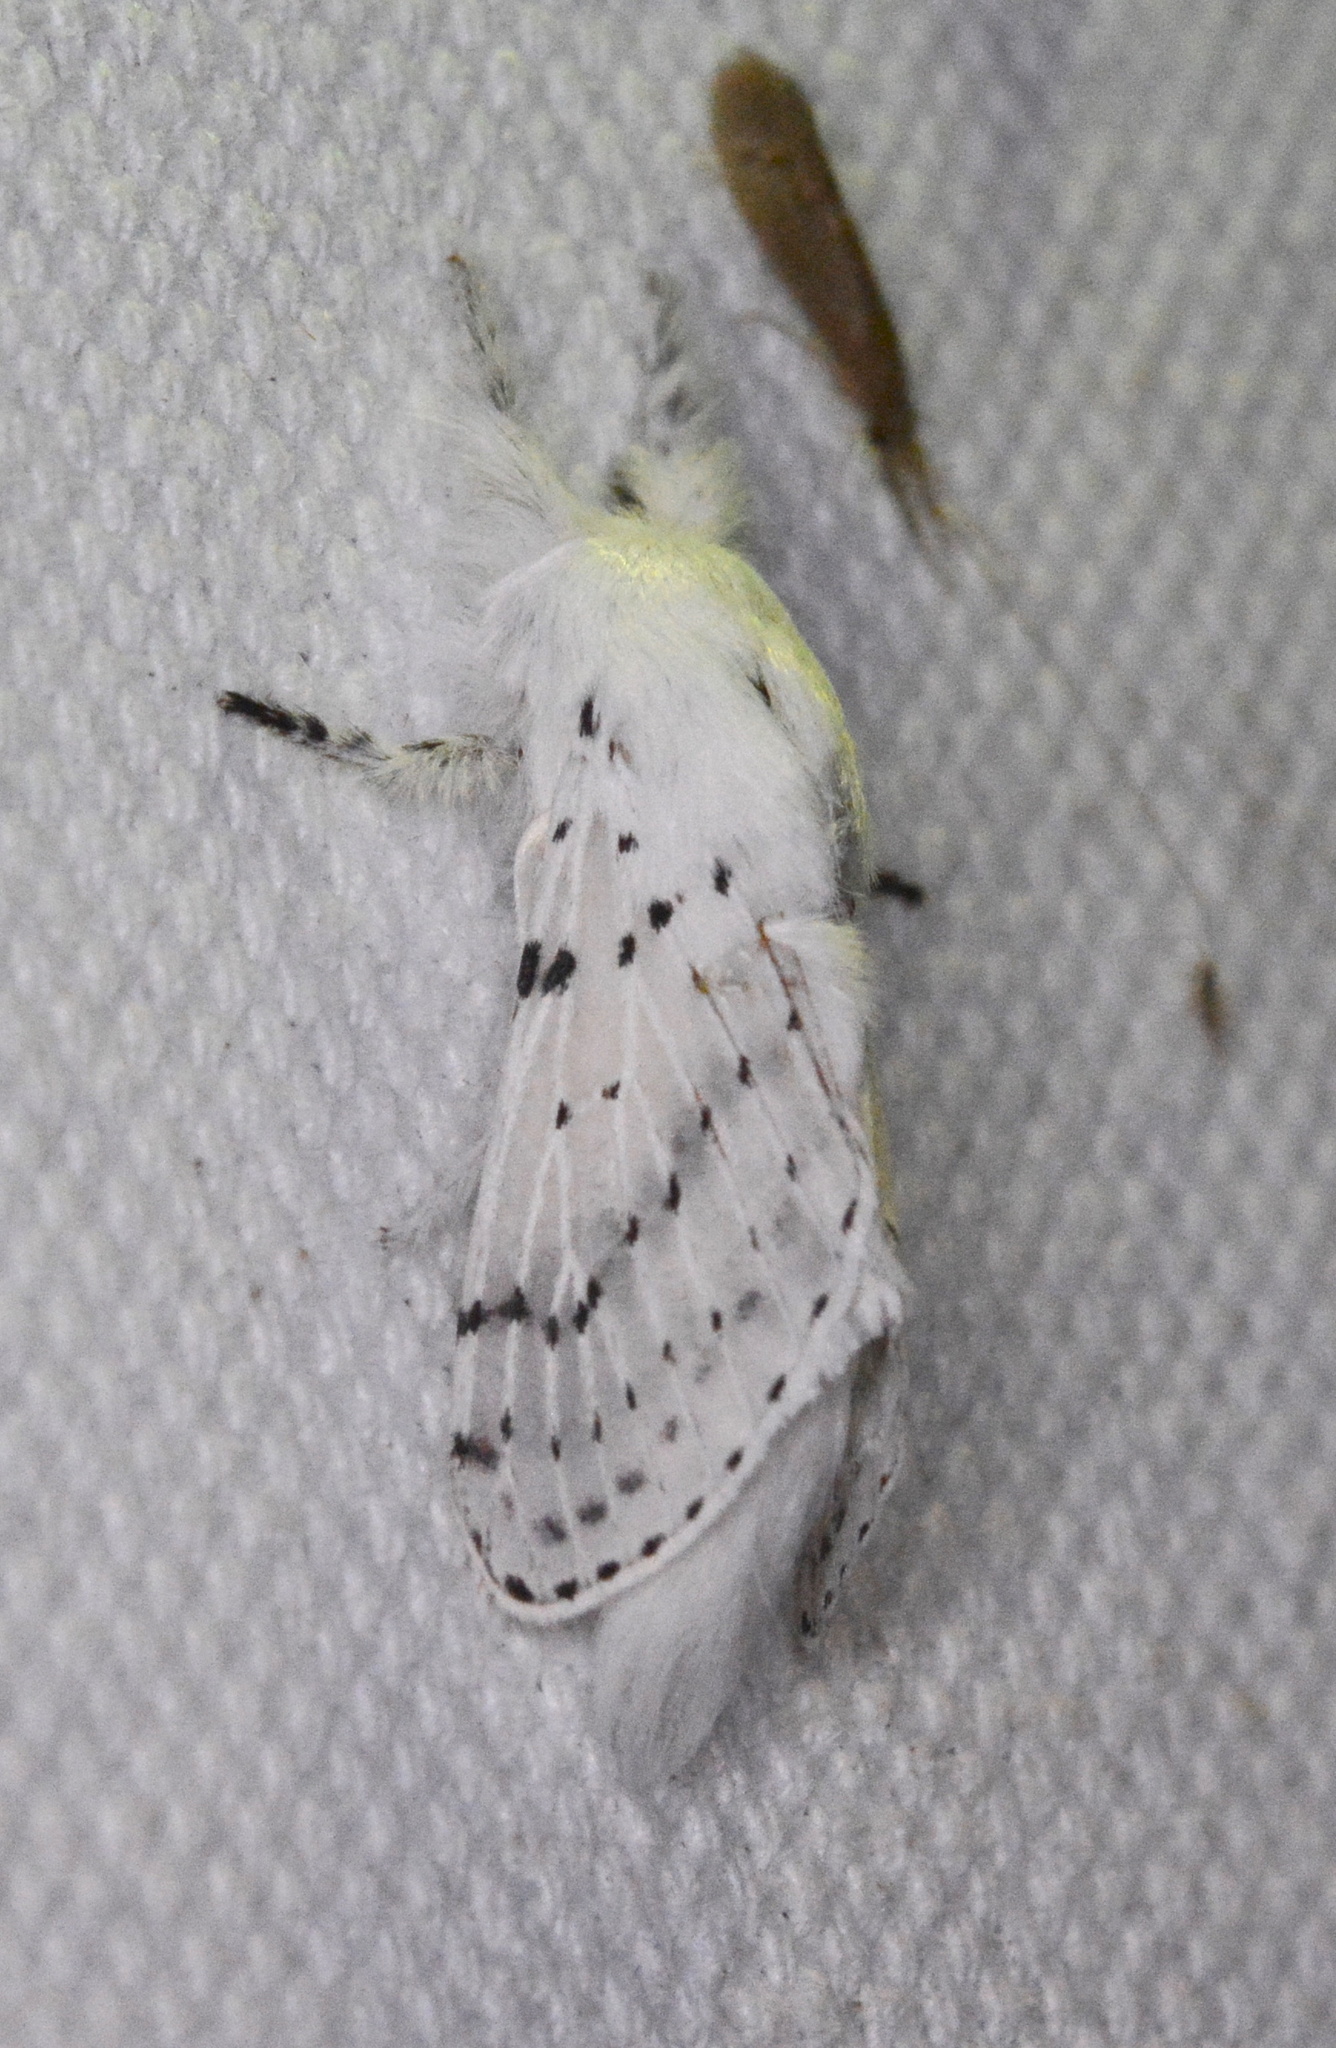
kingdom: Animalia
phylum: Arthropoda
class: Insecta
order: Lepidoptera
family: Lasiocampidae
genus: Artace
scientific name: Artace cribrarius
